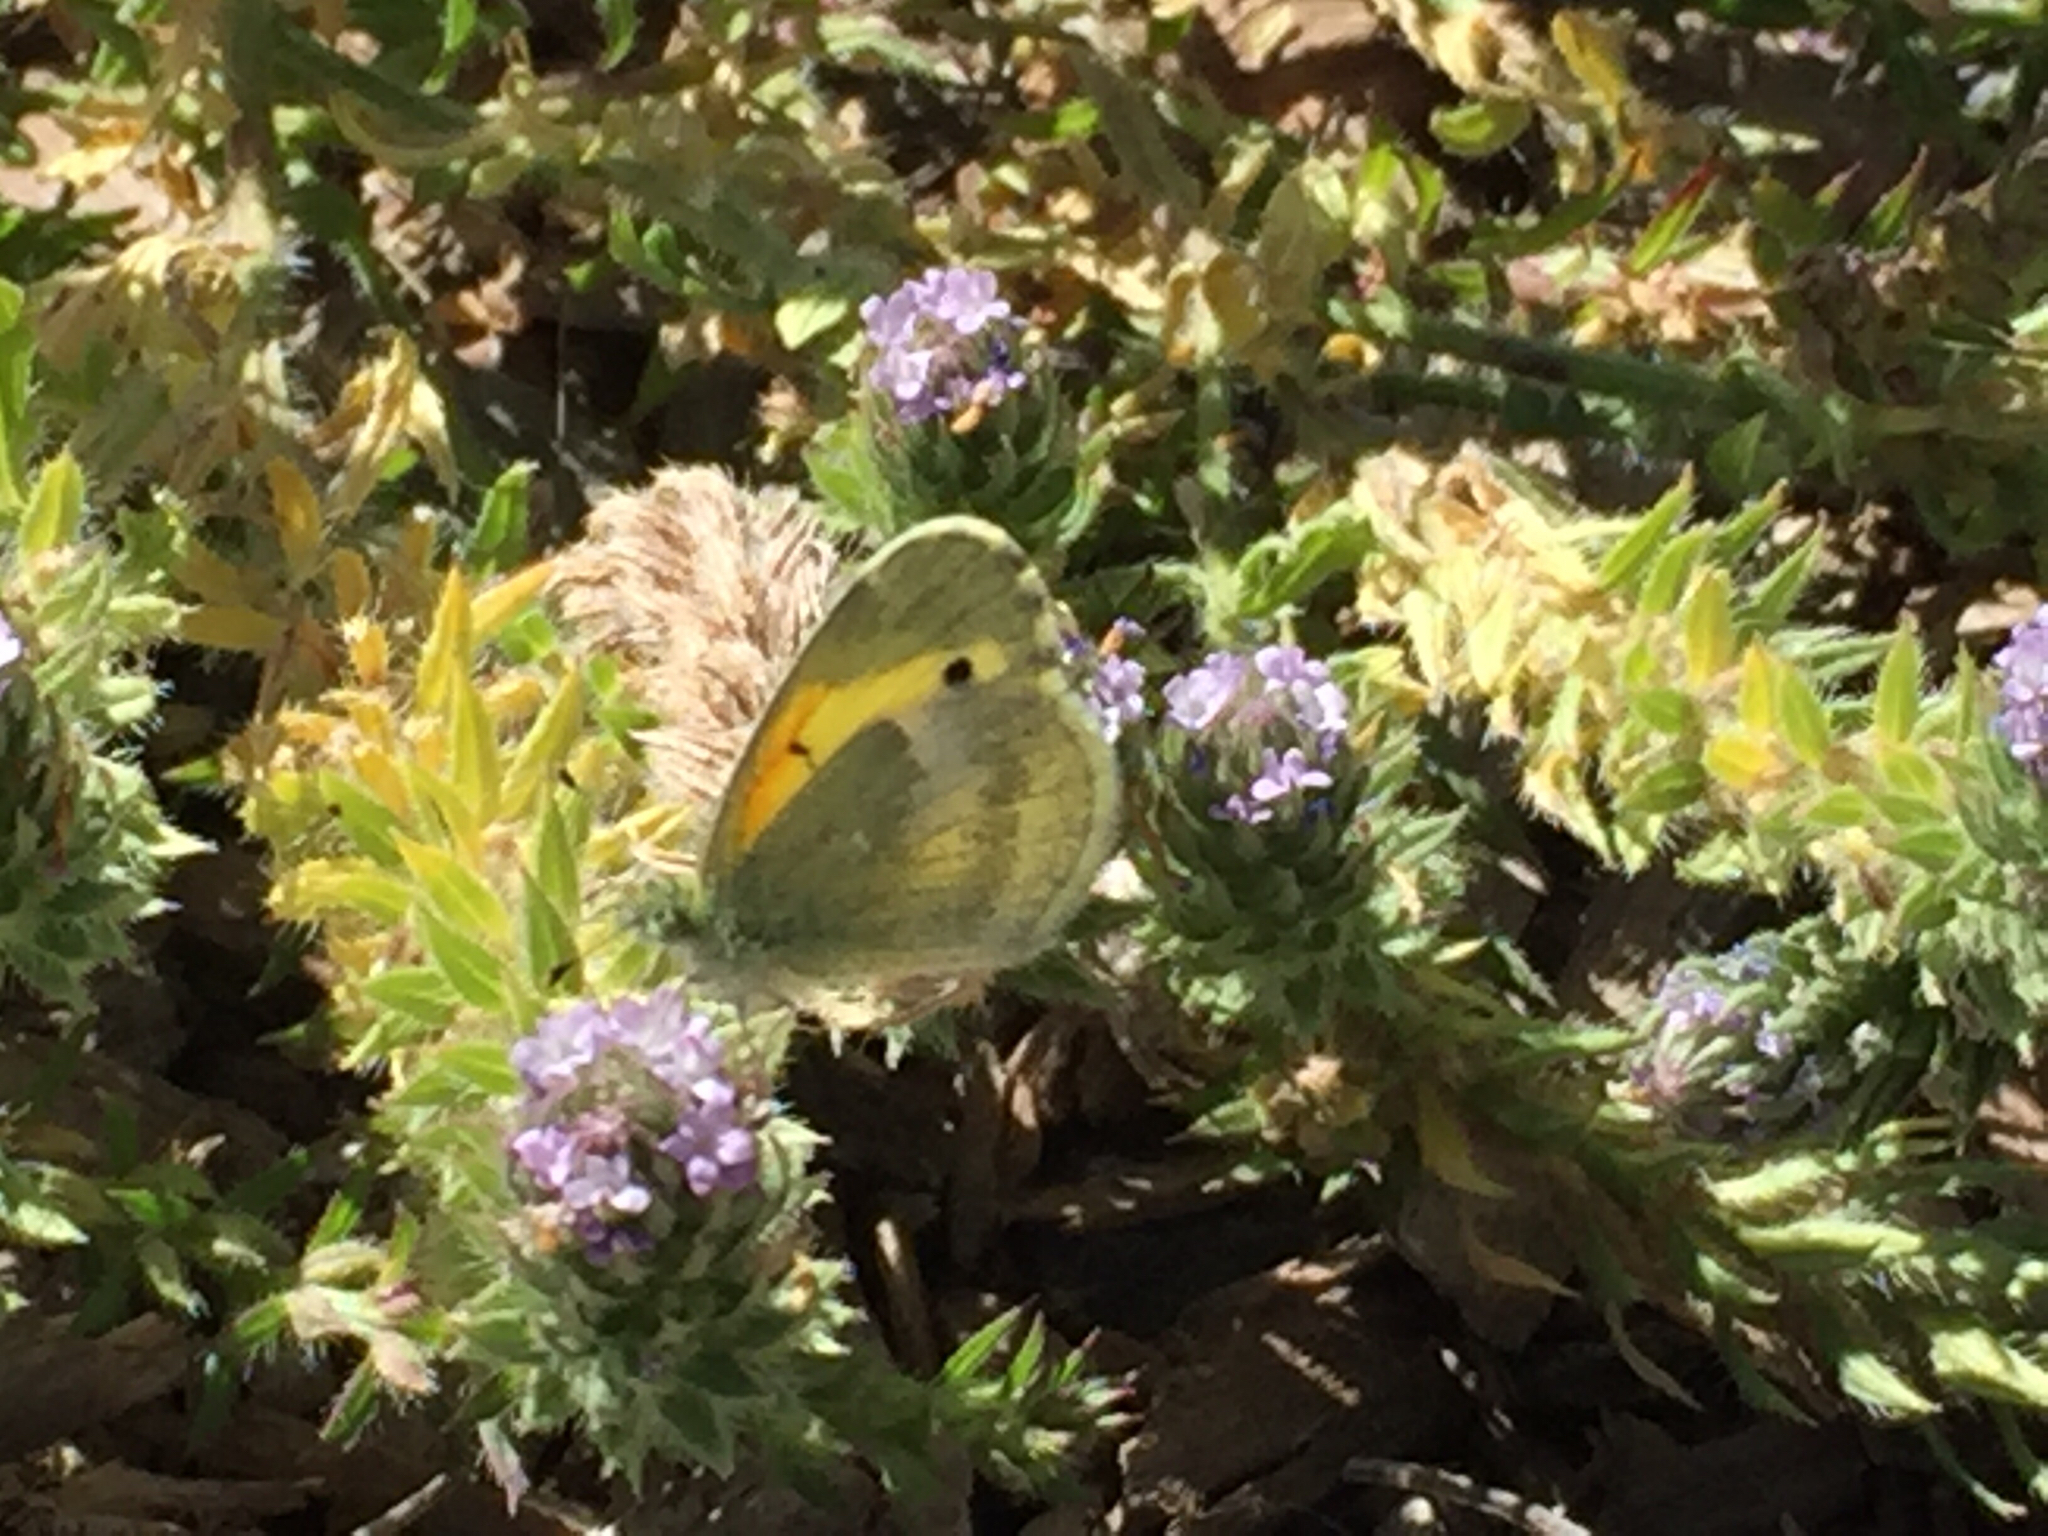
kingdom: Animalia
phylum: Arthropoda
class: Insecta
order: Lepidoptera
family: Pieridae
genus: Nathalis
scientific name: Nathalis iole
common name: Dainty sulphur
